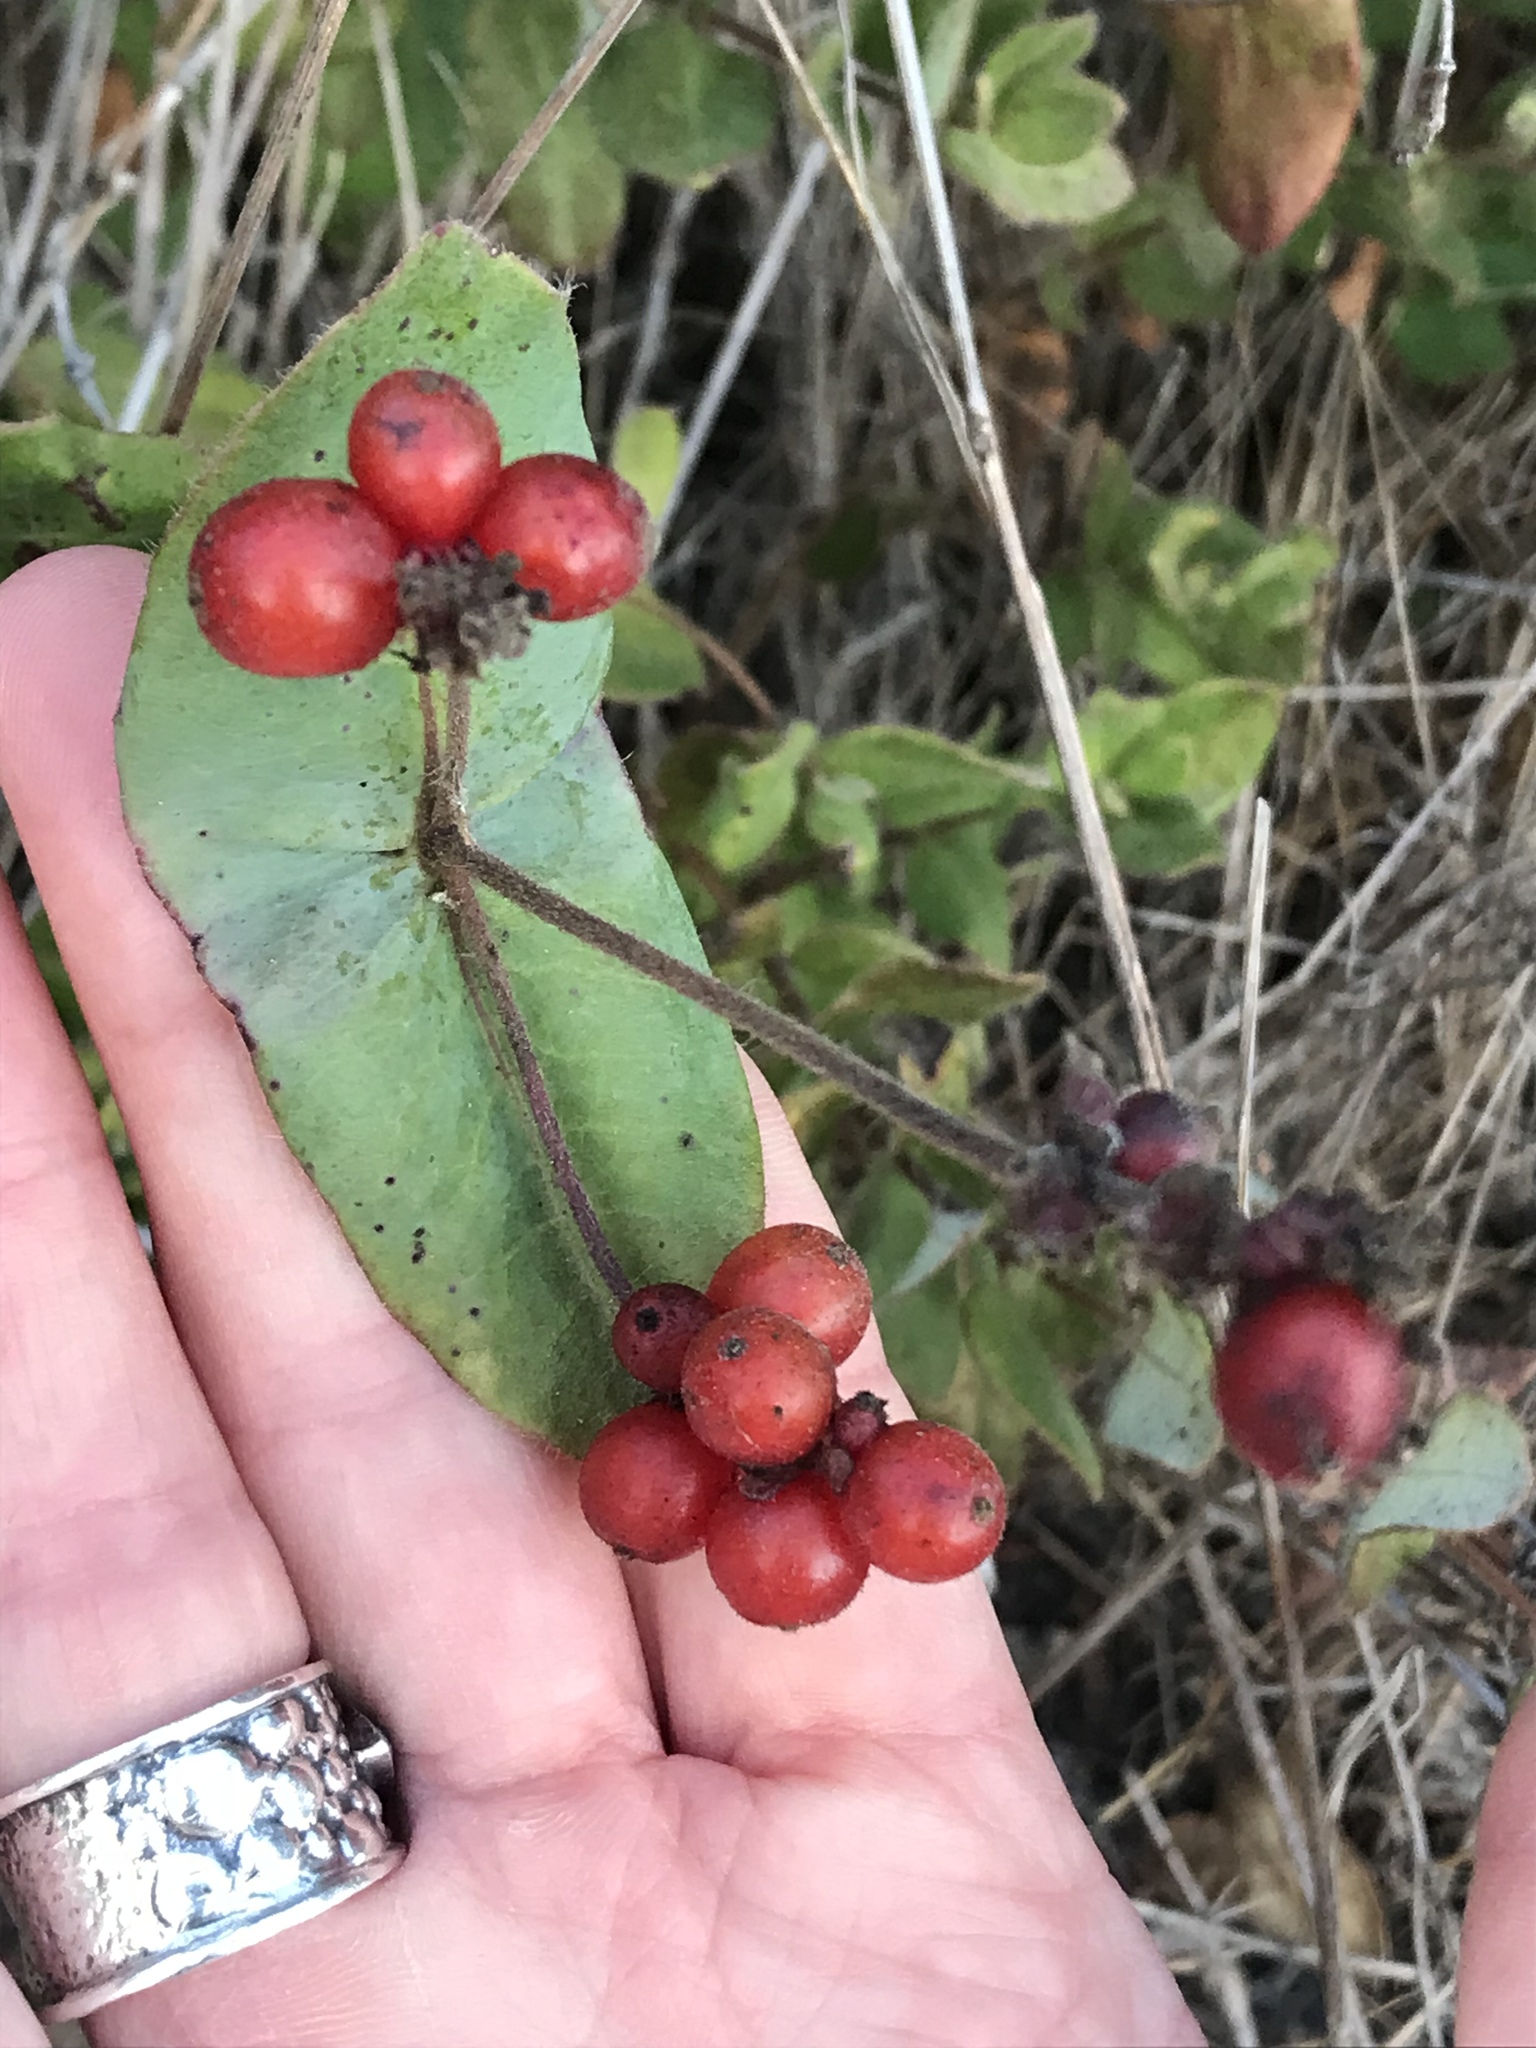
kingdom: Plantae
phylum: Tracheophyta
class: Magnoliopsida
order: Dipsacales
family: Caprifoliaceae
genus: Lonicera
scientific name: Lonicera hispidula
